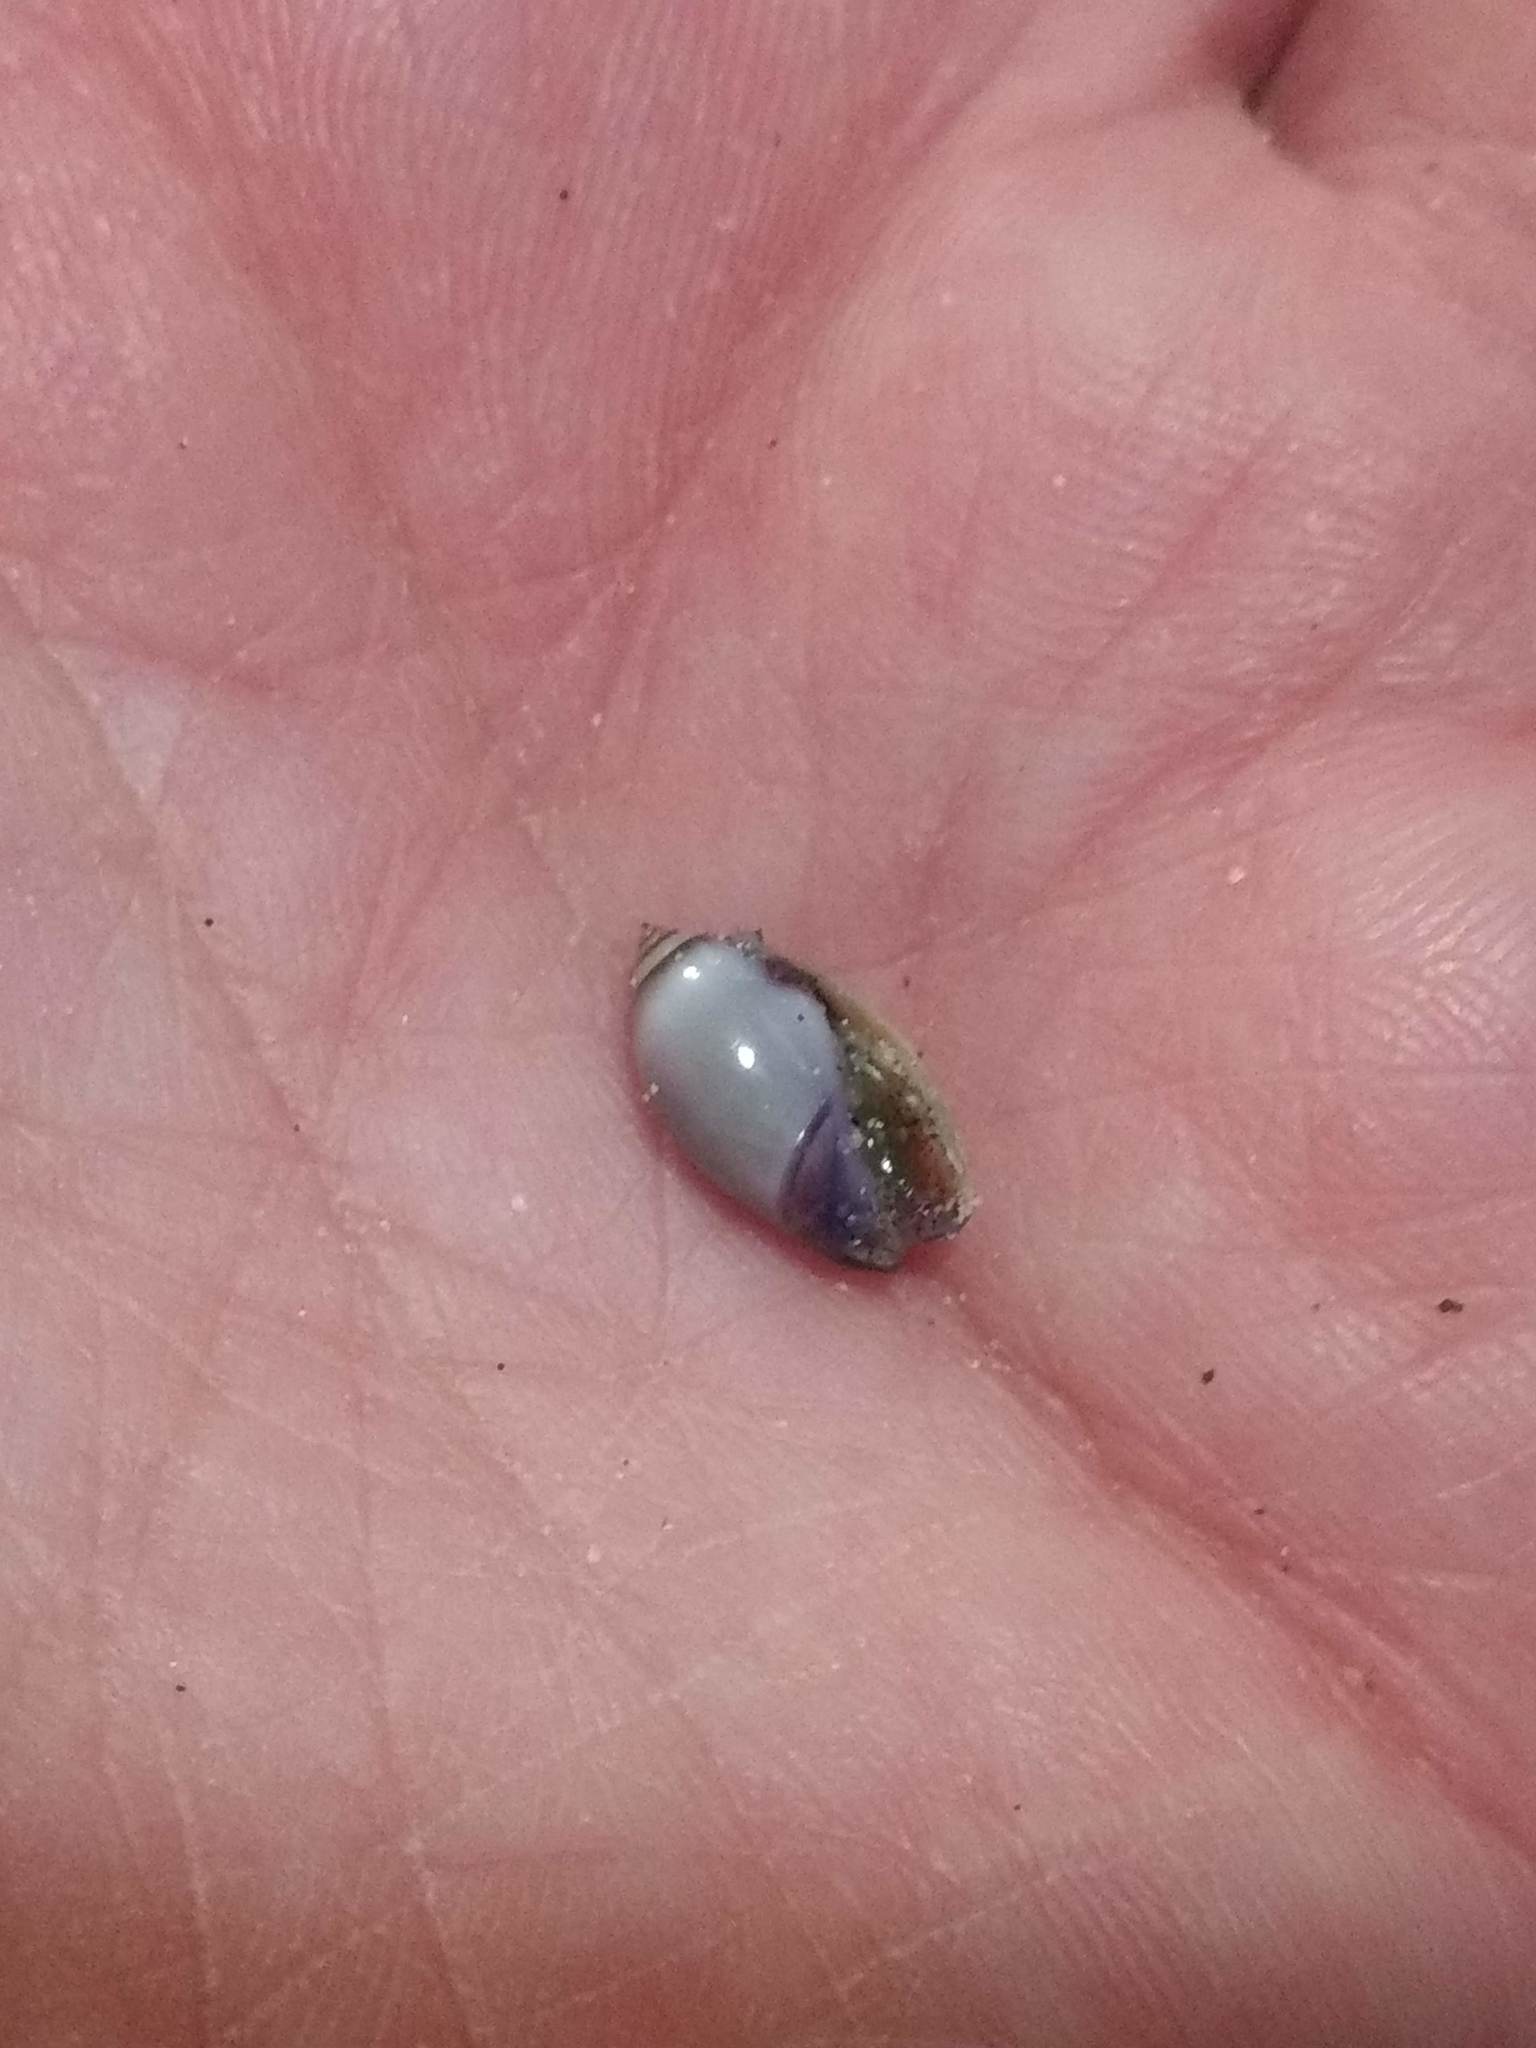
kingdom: Animalia
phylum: Mollusca
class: Gastropoda
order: Neogastropoda
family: Olividae
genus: Callianax
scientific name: Callianax biplicata
